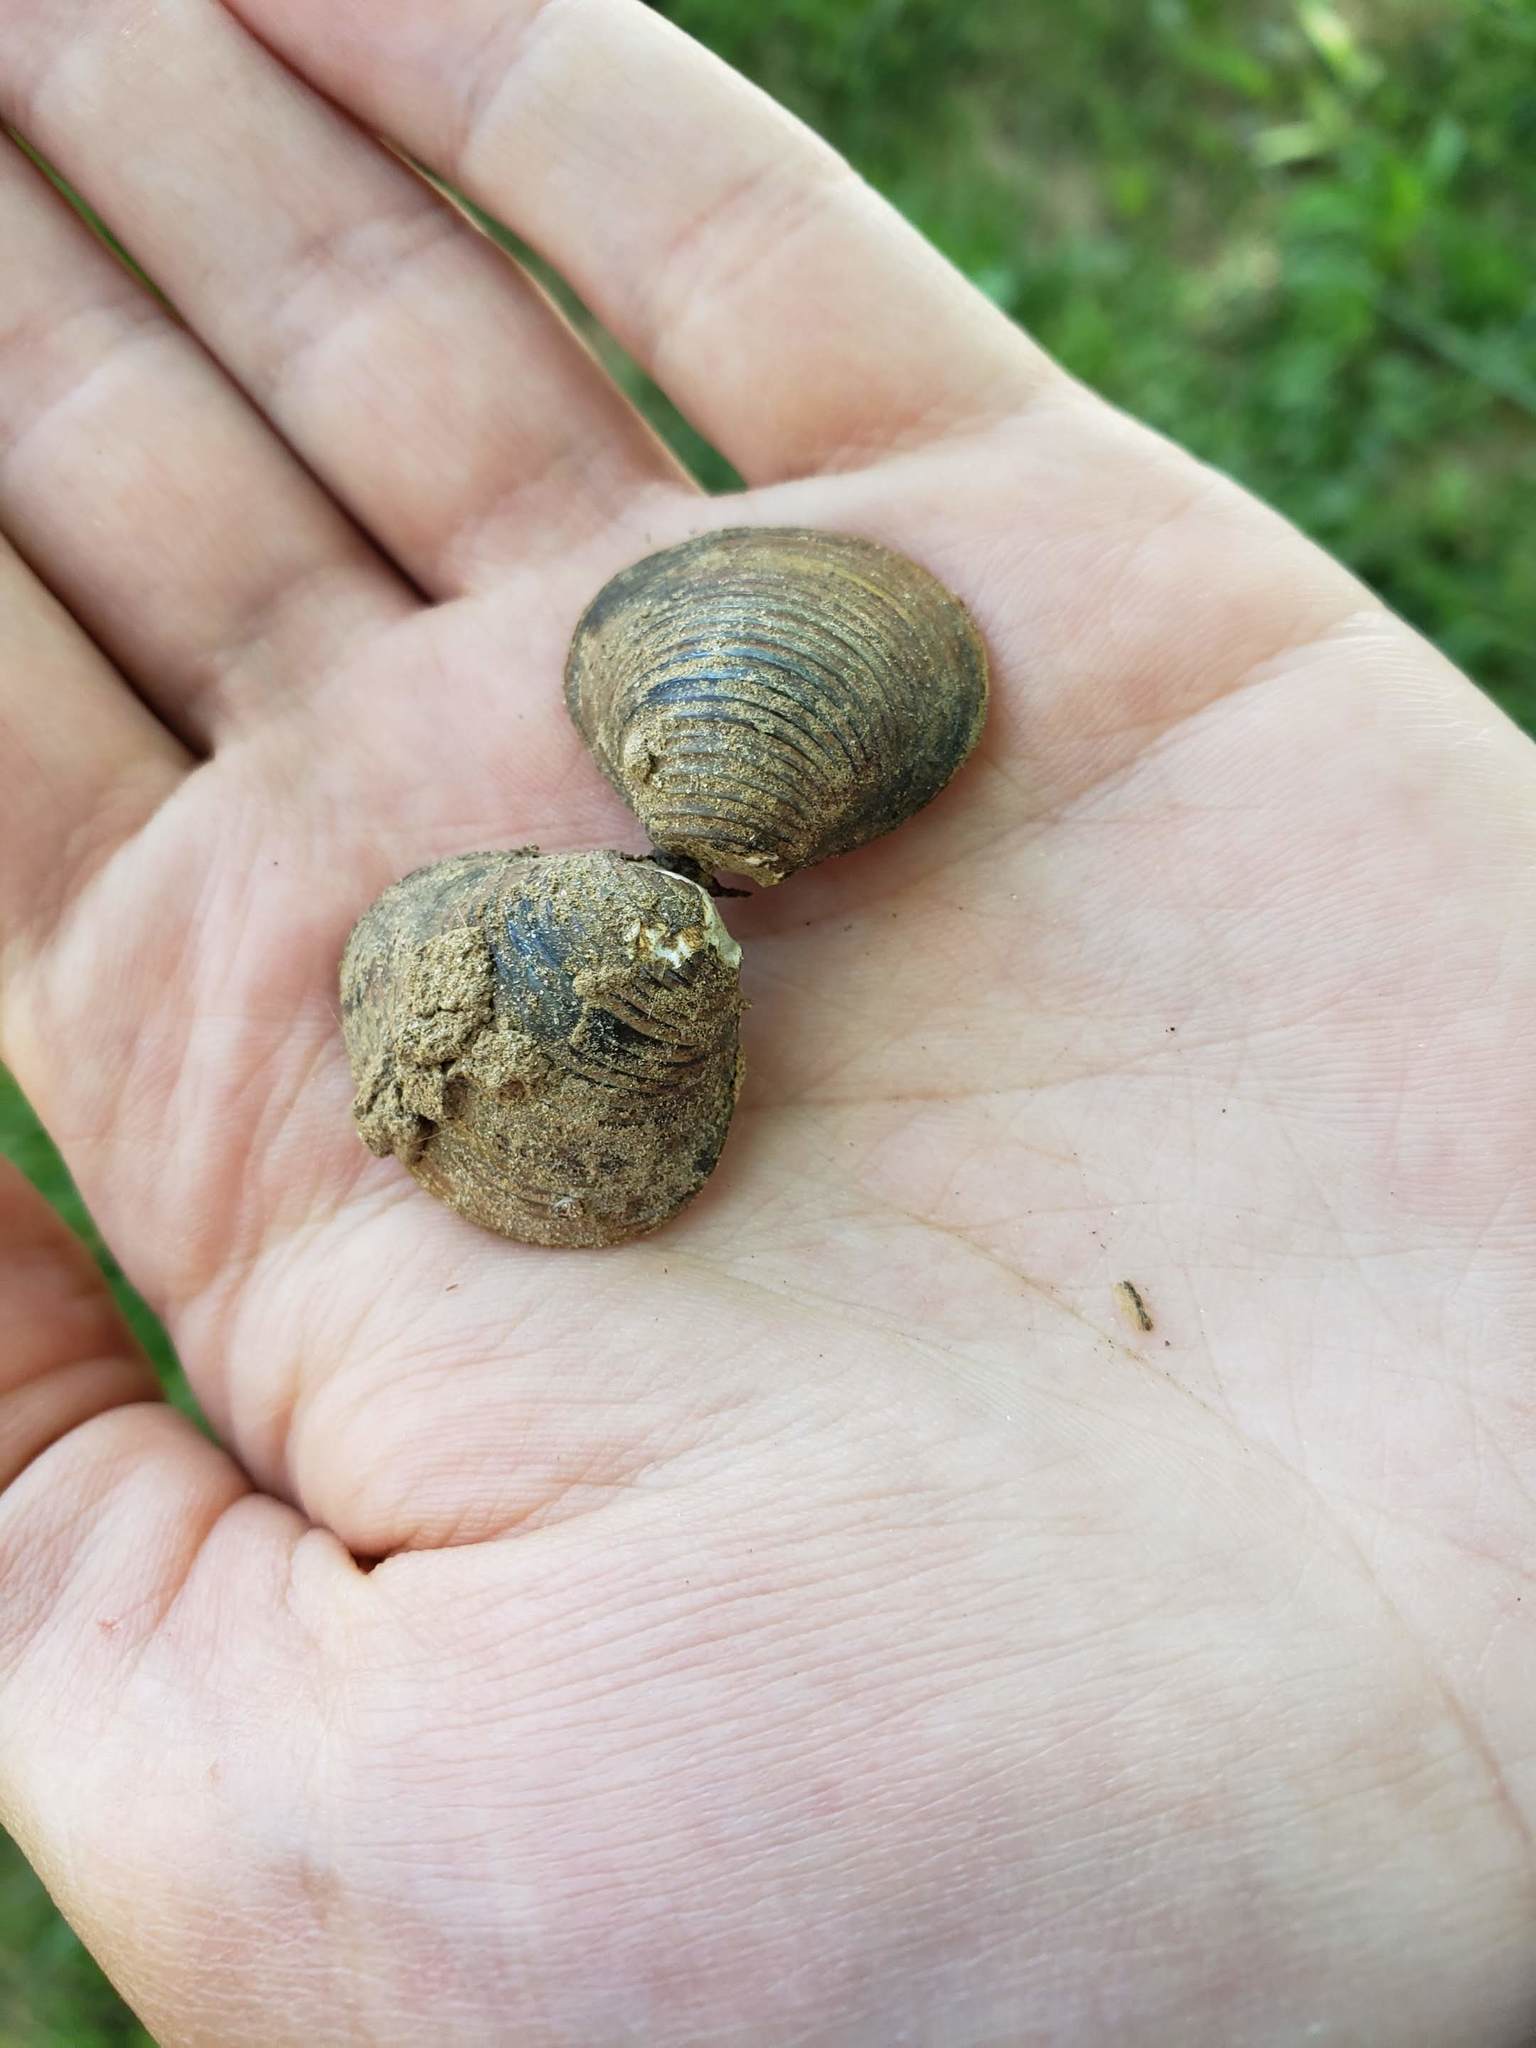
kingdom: Animalia
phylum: Mollusca
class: Bivalvia
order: Venerida
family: Cyrenidae
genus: Corbicula
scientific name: Corbicula fluminea
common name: Asian clam
